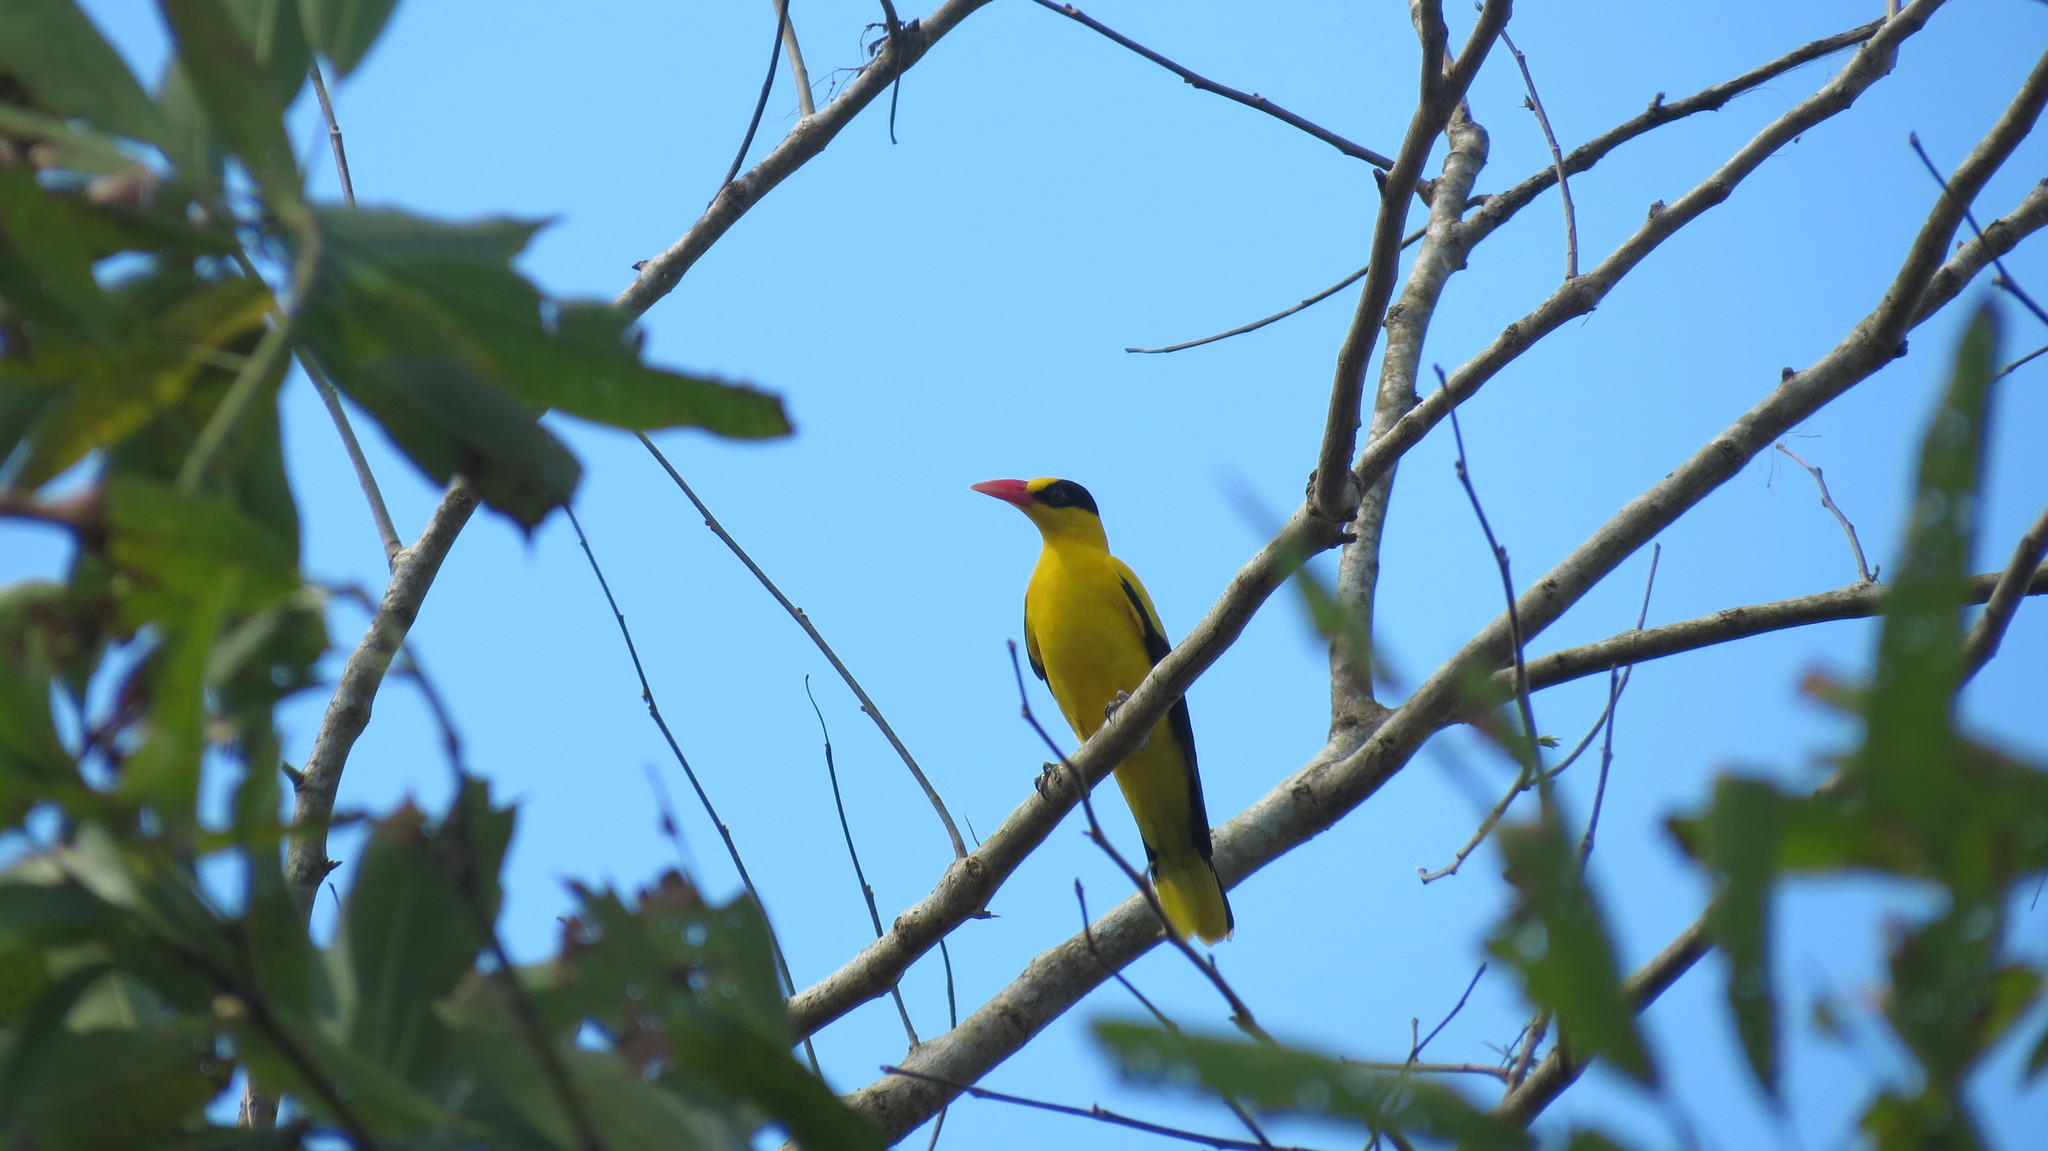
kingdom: Animalia
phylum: Chordata
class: Aves
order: Passeriformes
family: Oriolidae
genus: Oriolus
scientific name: Oriolus chinensis
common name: Black-naped oriole
